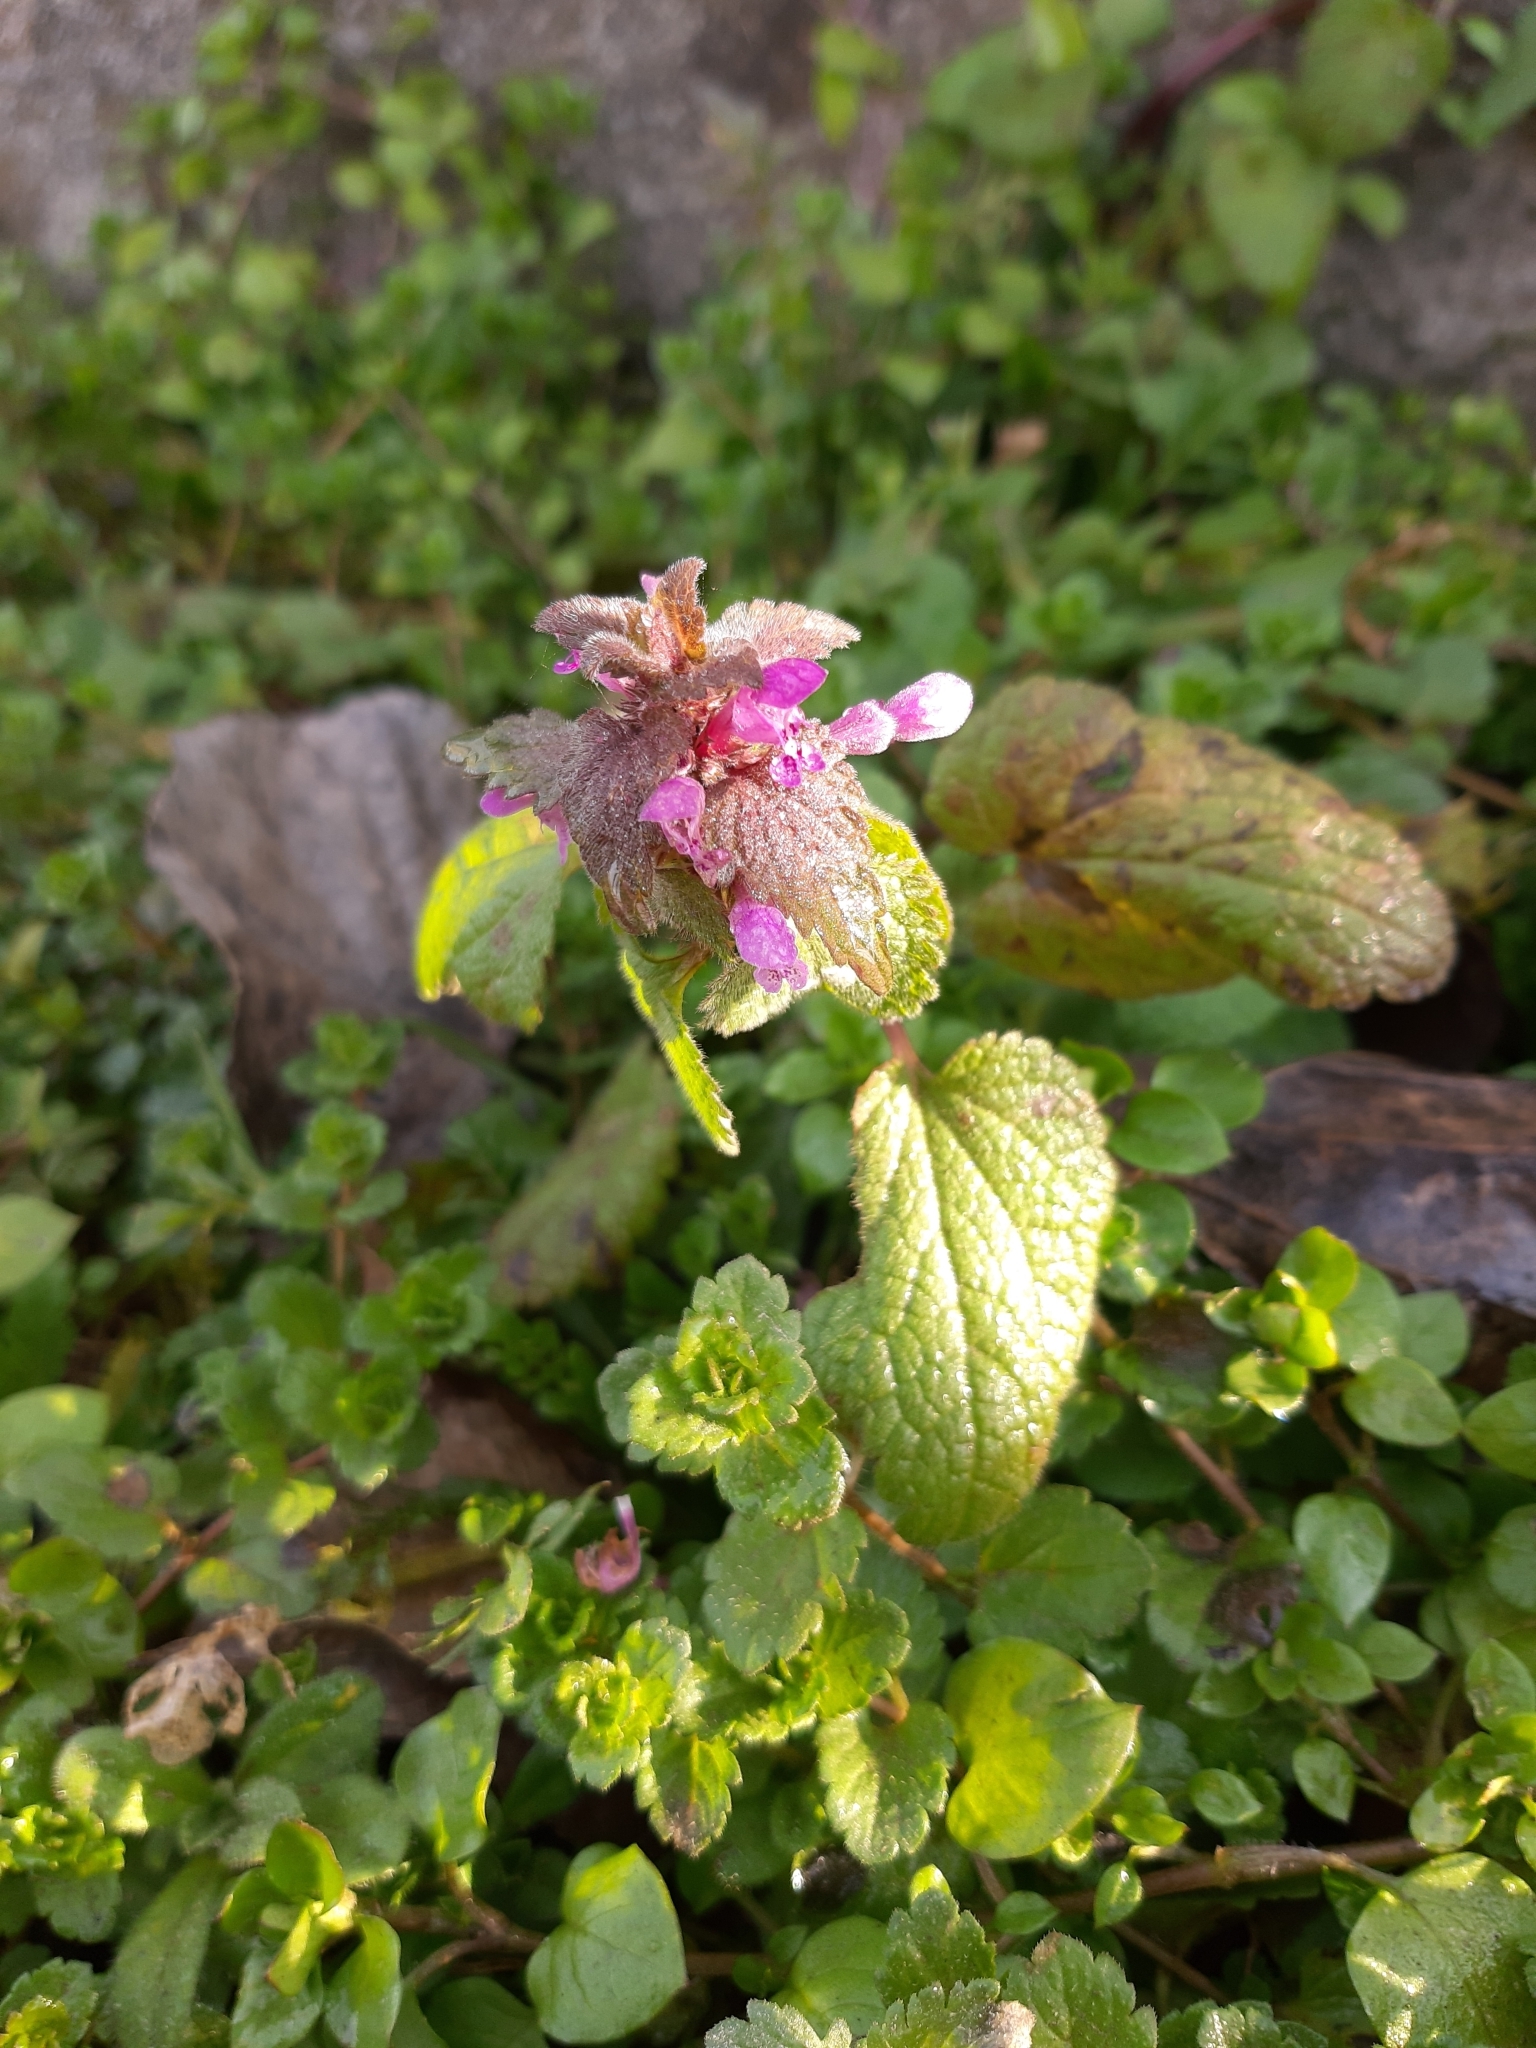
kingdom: Plantae
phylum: Tracheophyta
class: Magnoliopsida
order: Lamiales
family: Lamiaceae
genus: Lamium
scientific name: Lamium purpureum
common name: Red dead-nettle
